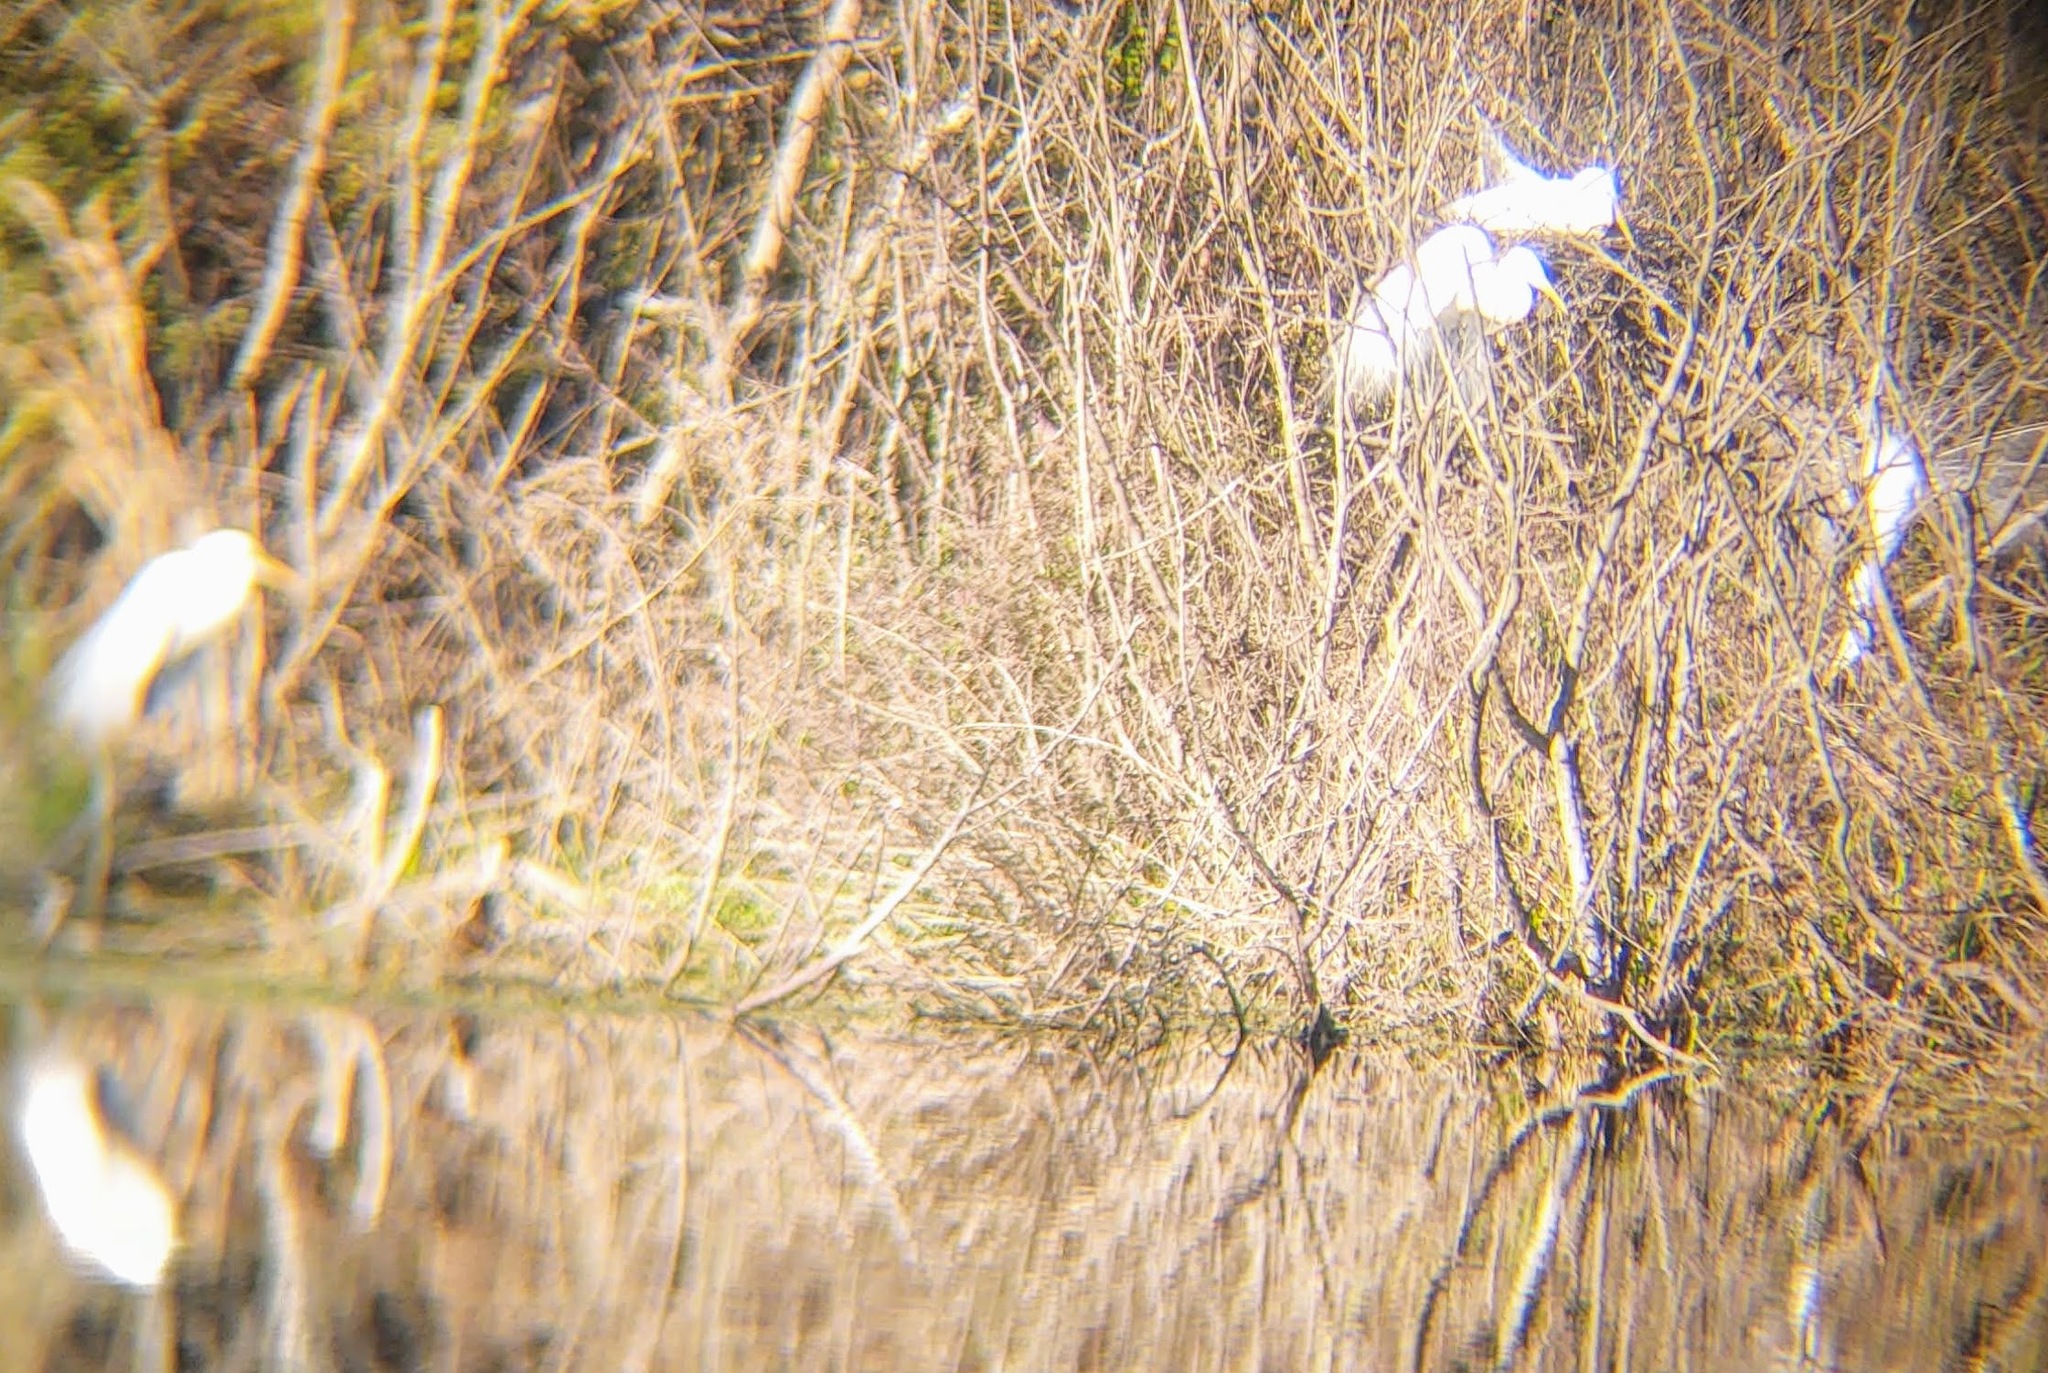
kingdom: Animalia
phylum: Chordata
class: Aves
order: Pelecaniformes
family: Ardeidae
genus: Ardea
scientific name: Ardea alba
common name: Great egret
